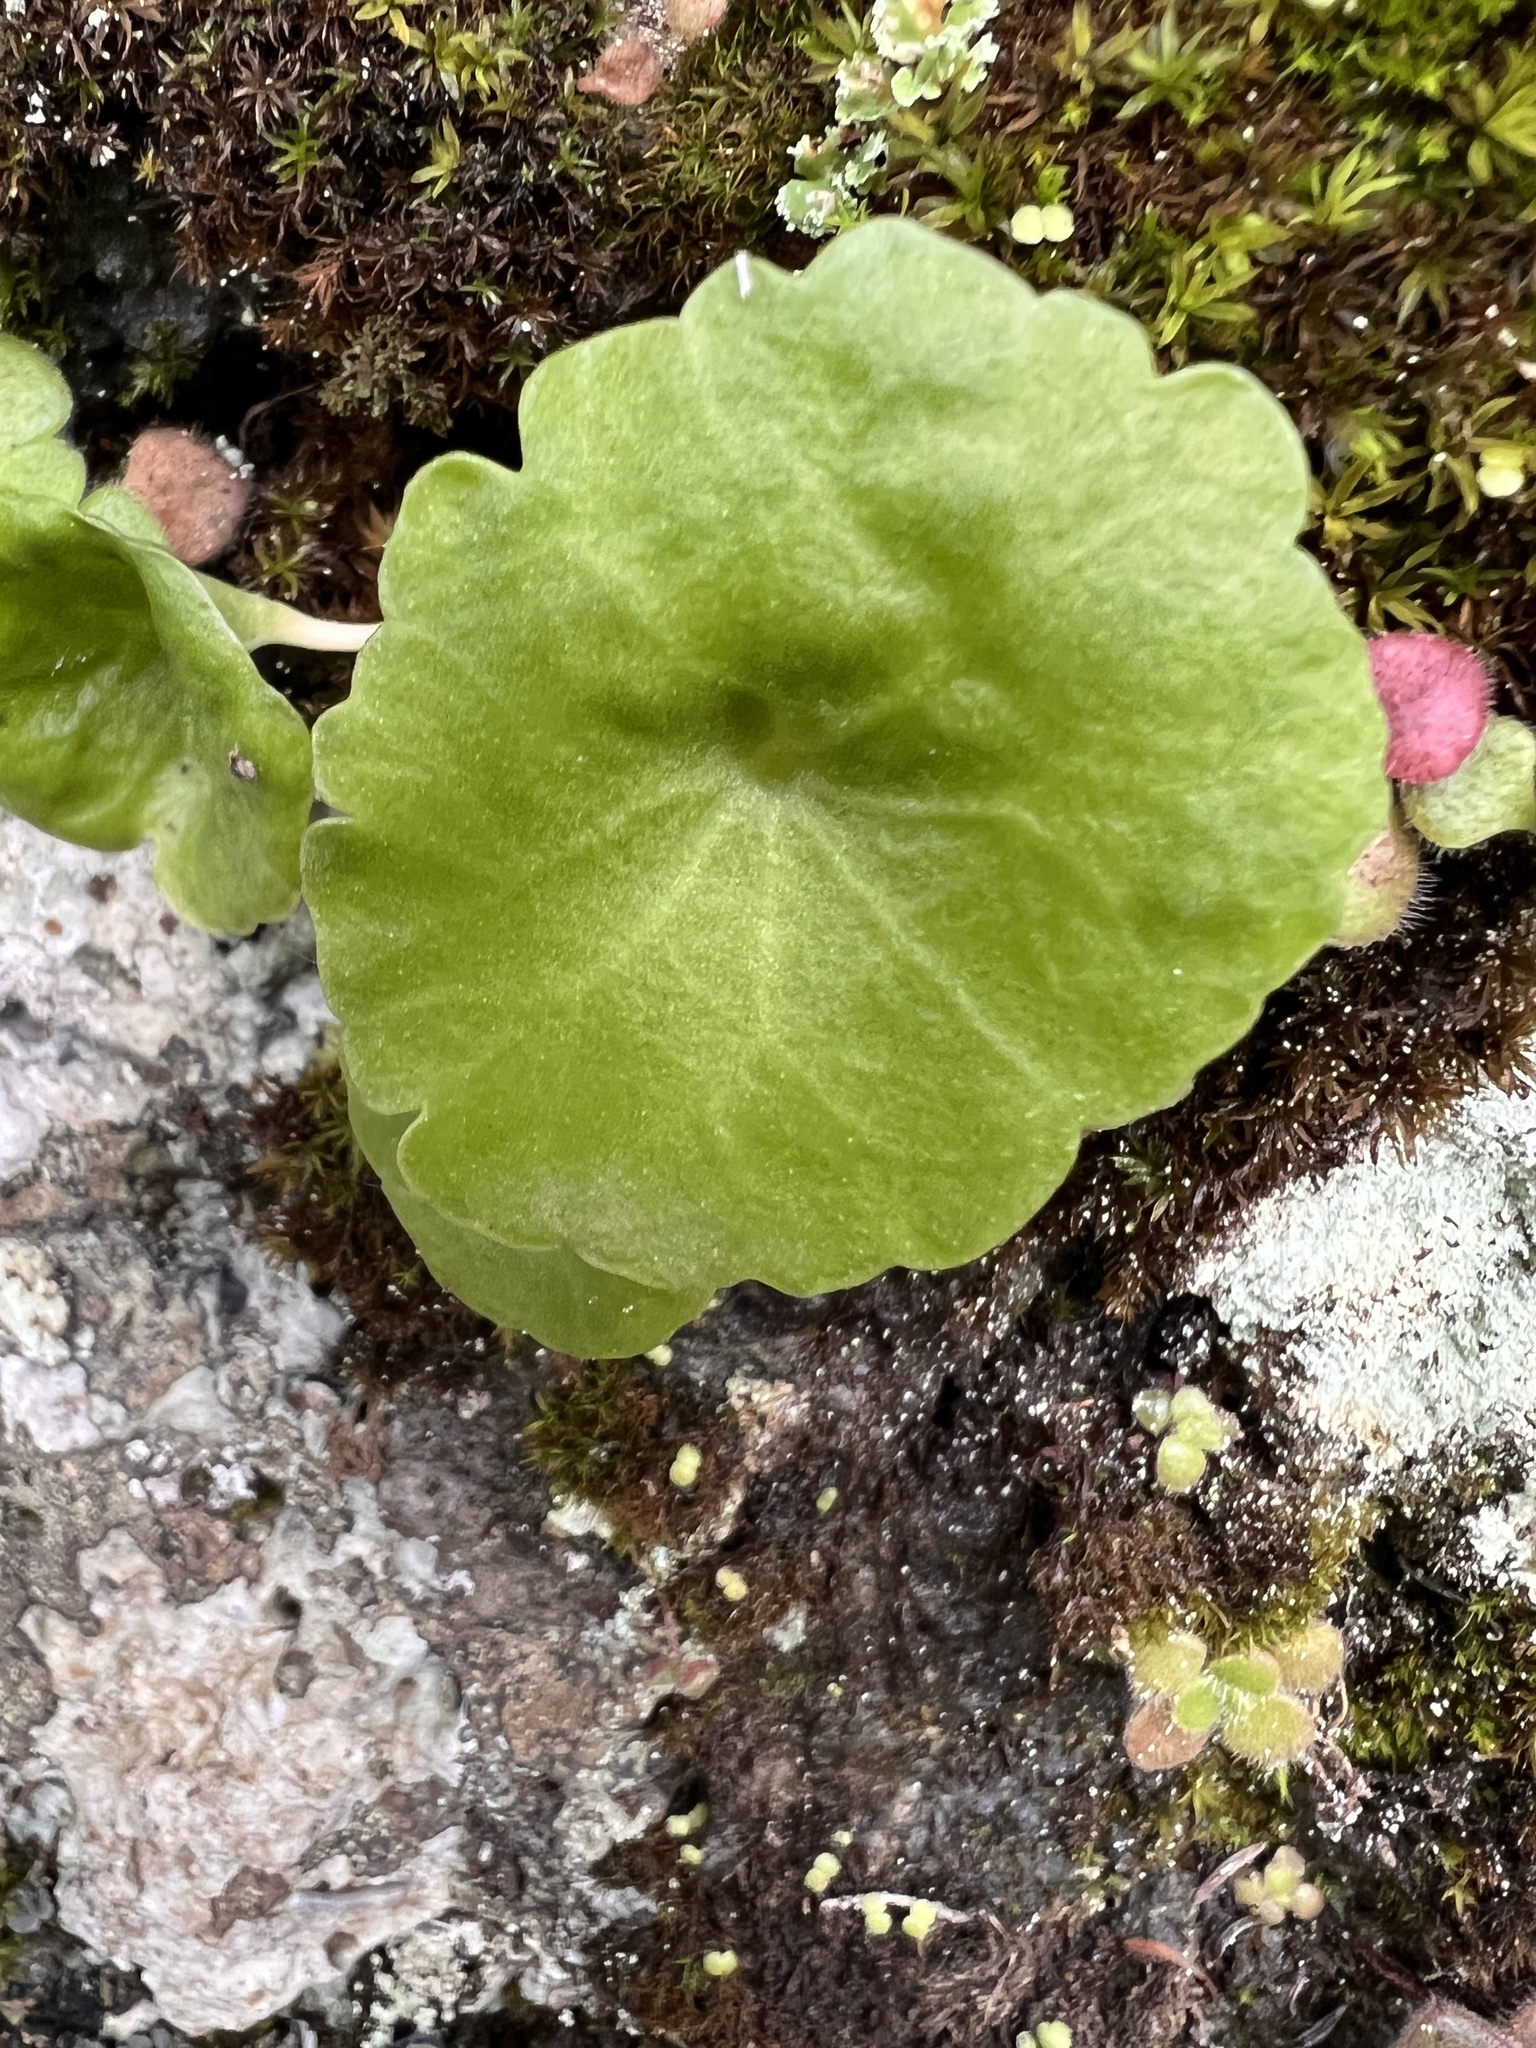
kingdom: Plantae
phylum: Tracheophyta
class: Magnoliopsida
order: Saxifragales
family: Crassulaceae
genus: Umbilicus
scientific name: Umbilicus rupestris
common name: Navelwort
